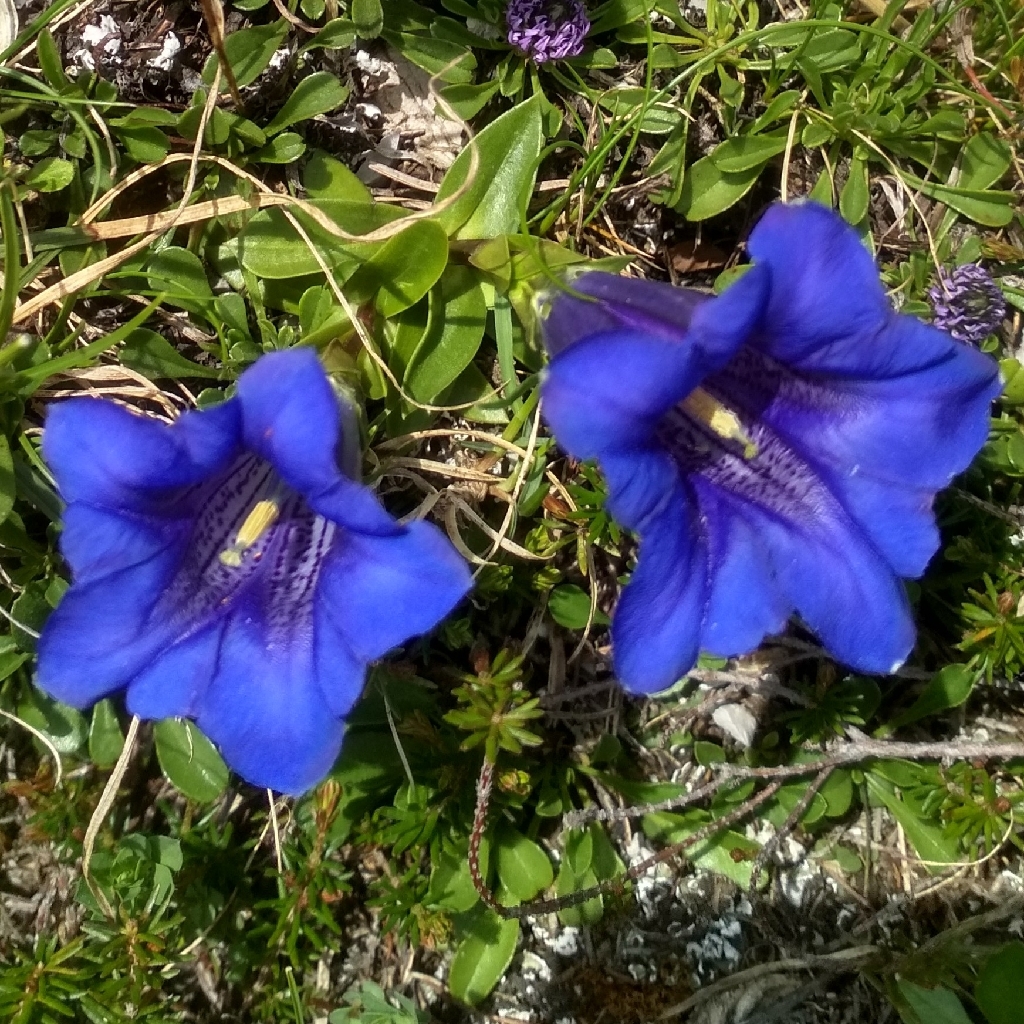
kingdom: Plantae
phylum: Tracheophyta
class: Magnoliopsida
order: Gentianales
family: Gentianaceae
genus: Gentiana
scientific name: Gentiana clusii
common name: Trumpet gentian
